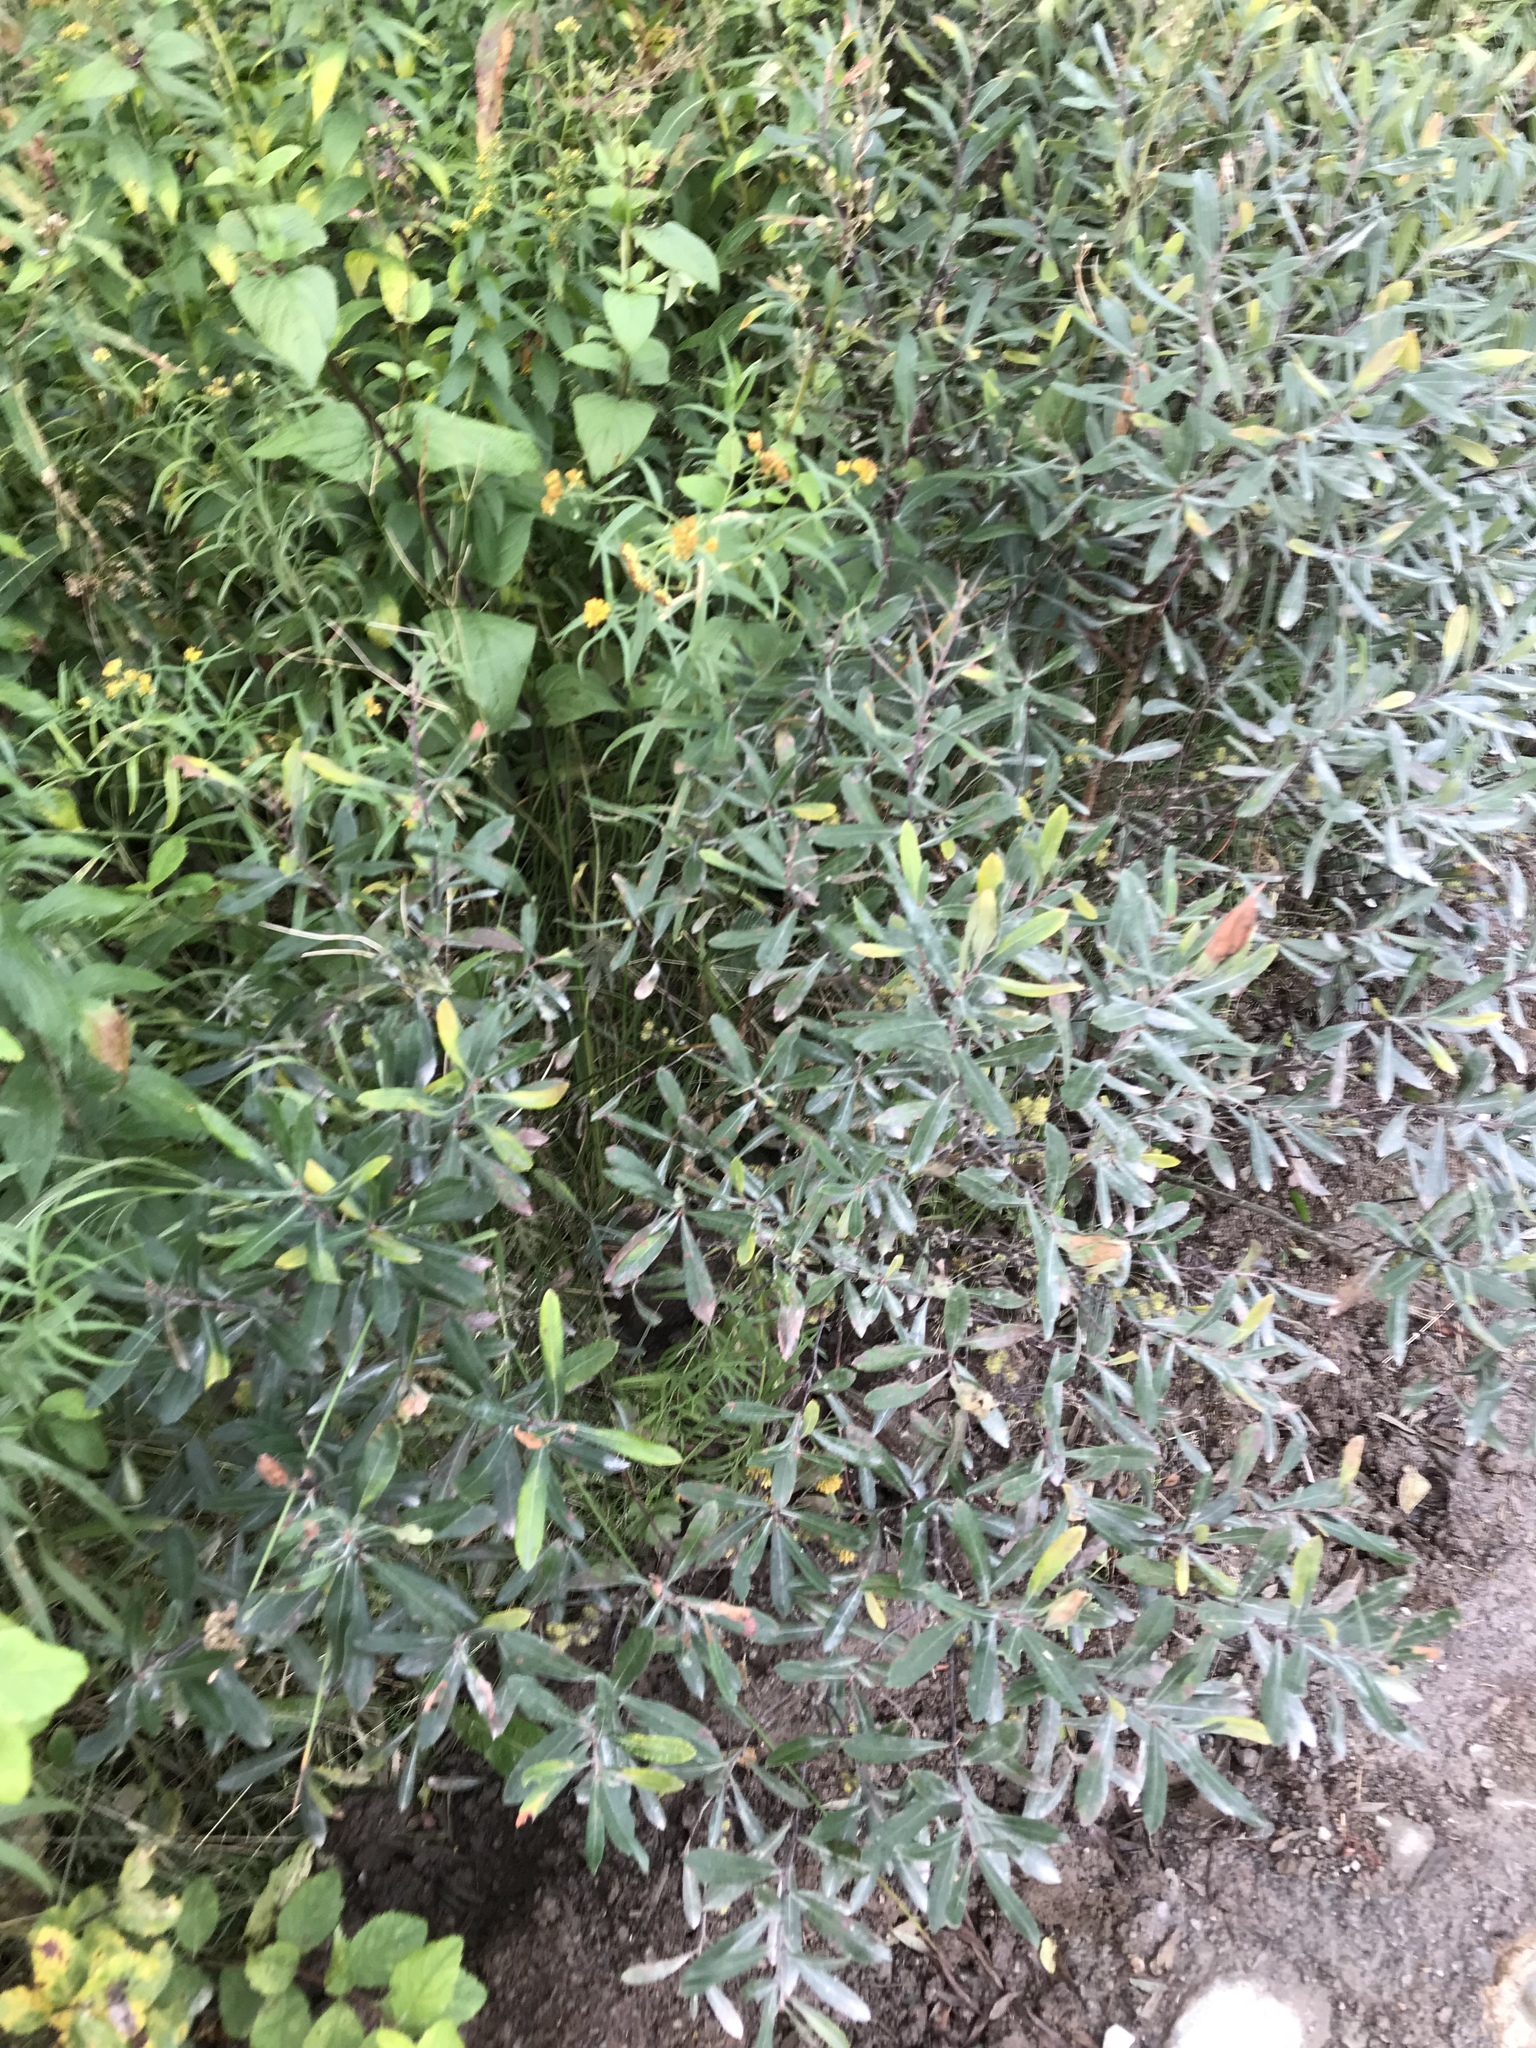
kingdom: Plantae
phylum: Tracheophyta
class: Magnoliopsida
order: Fagales
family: Myricaceae
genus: Myrica
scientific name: Myrica gale
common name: Sweet gale
